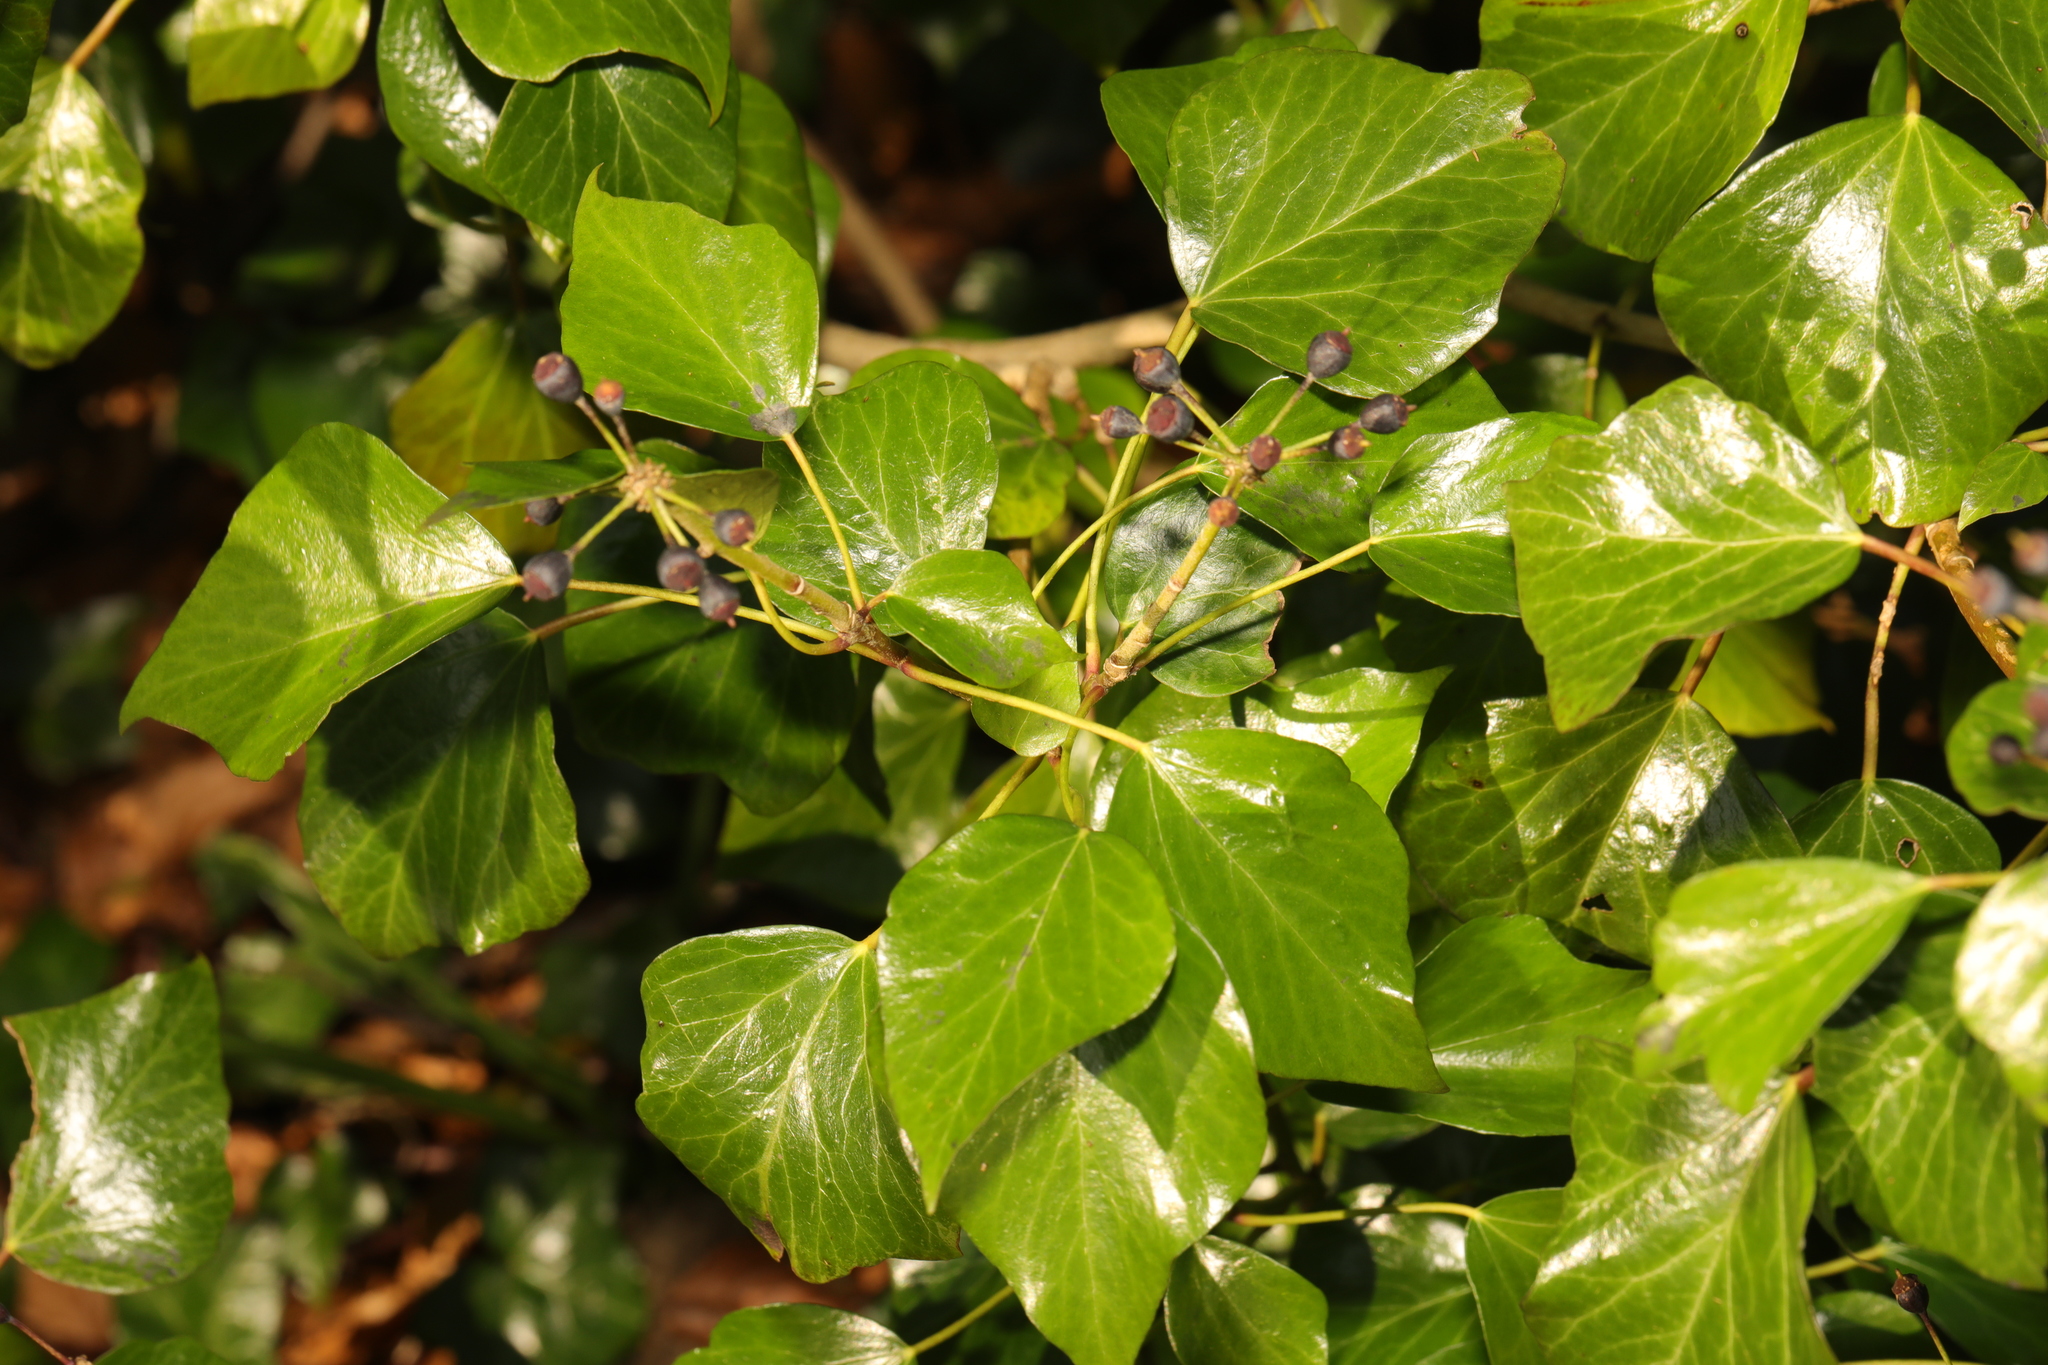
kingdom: Plantae
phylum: Tracheophyta
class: Magnoliopsida
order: Apiales
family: Araliaceae
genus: Hedera
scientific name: Hedera helix
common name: Ivy
